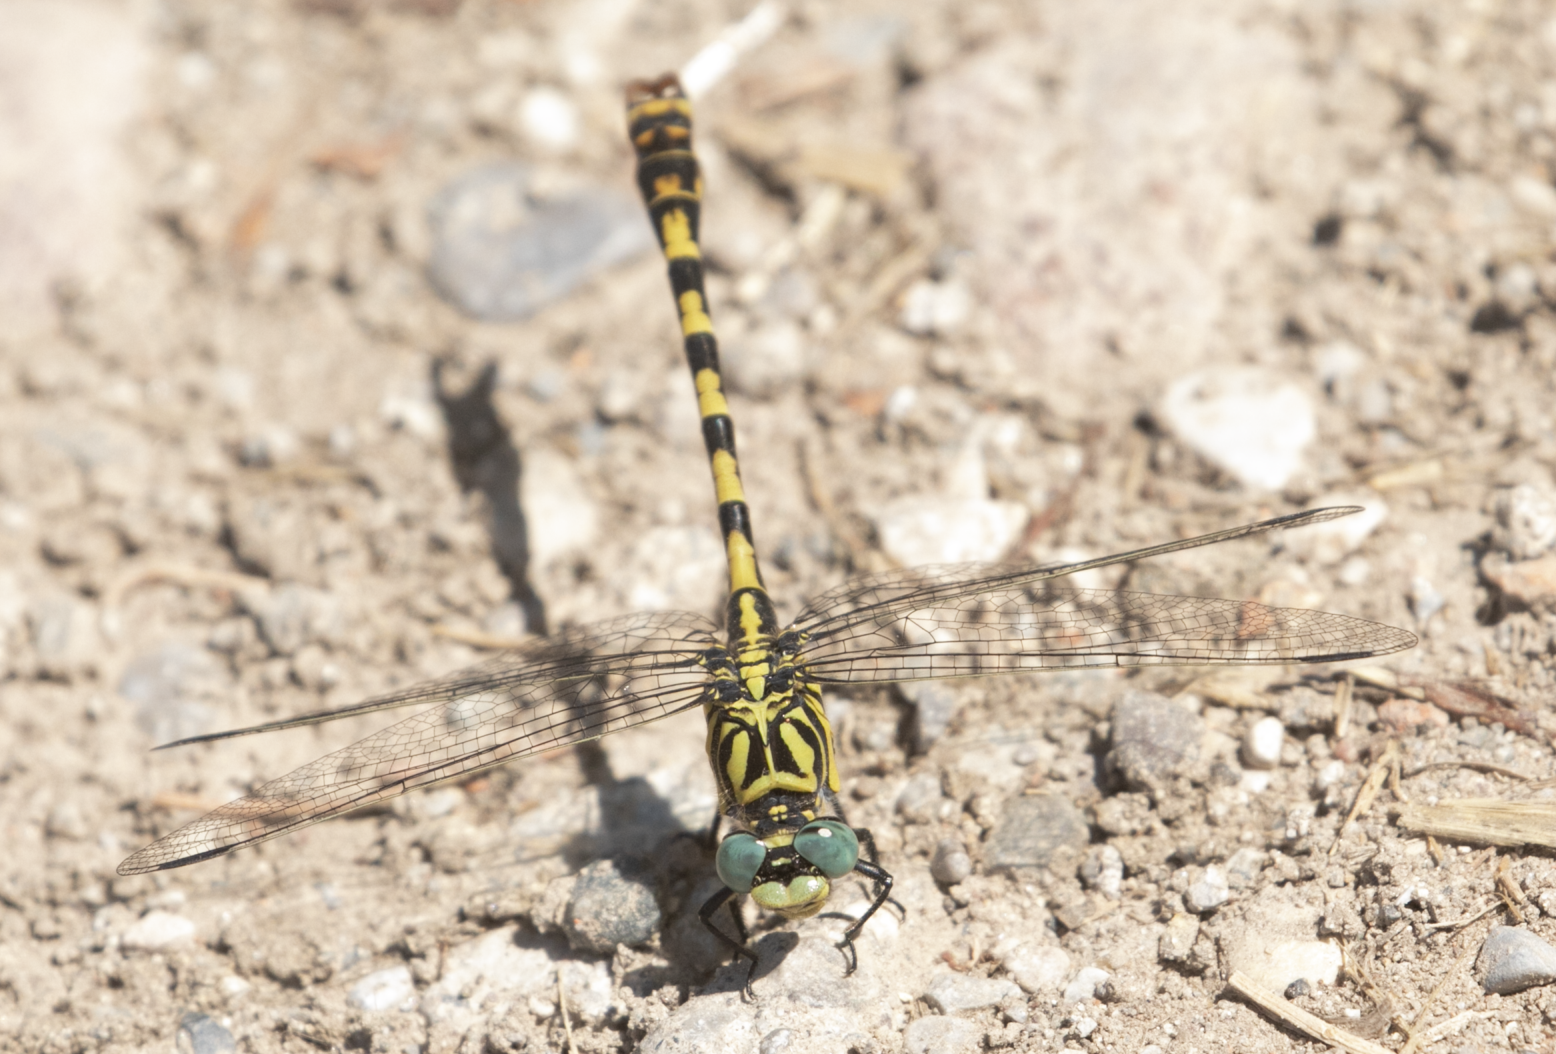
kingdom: Animalia
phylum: Arthropoda
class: Insecta
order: Odonata
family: Gomphidae
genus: Onychogomphus
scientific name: Onychogomphus forcipatus
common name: Small pincertail
